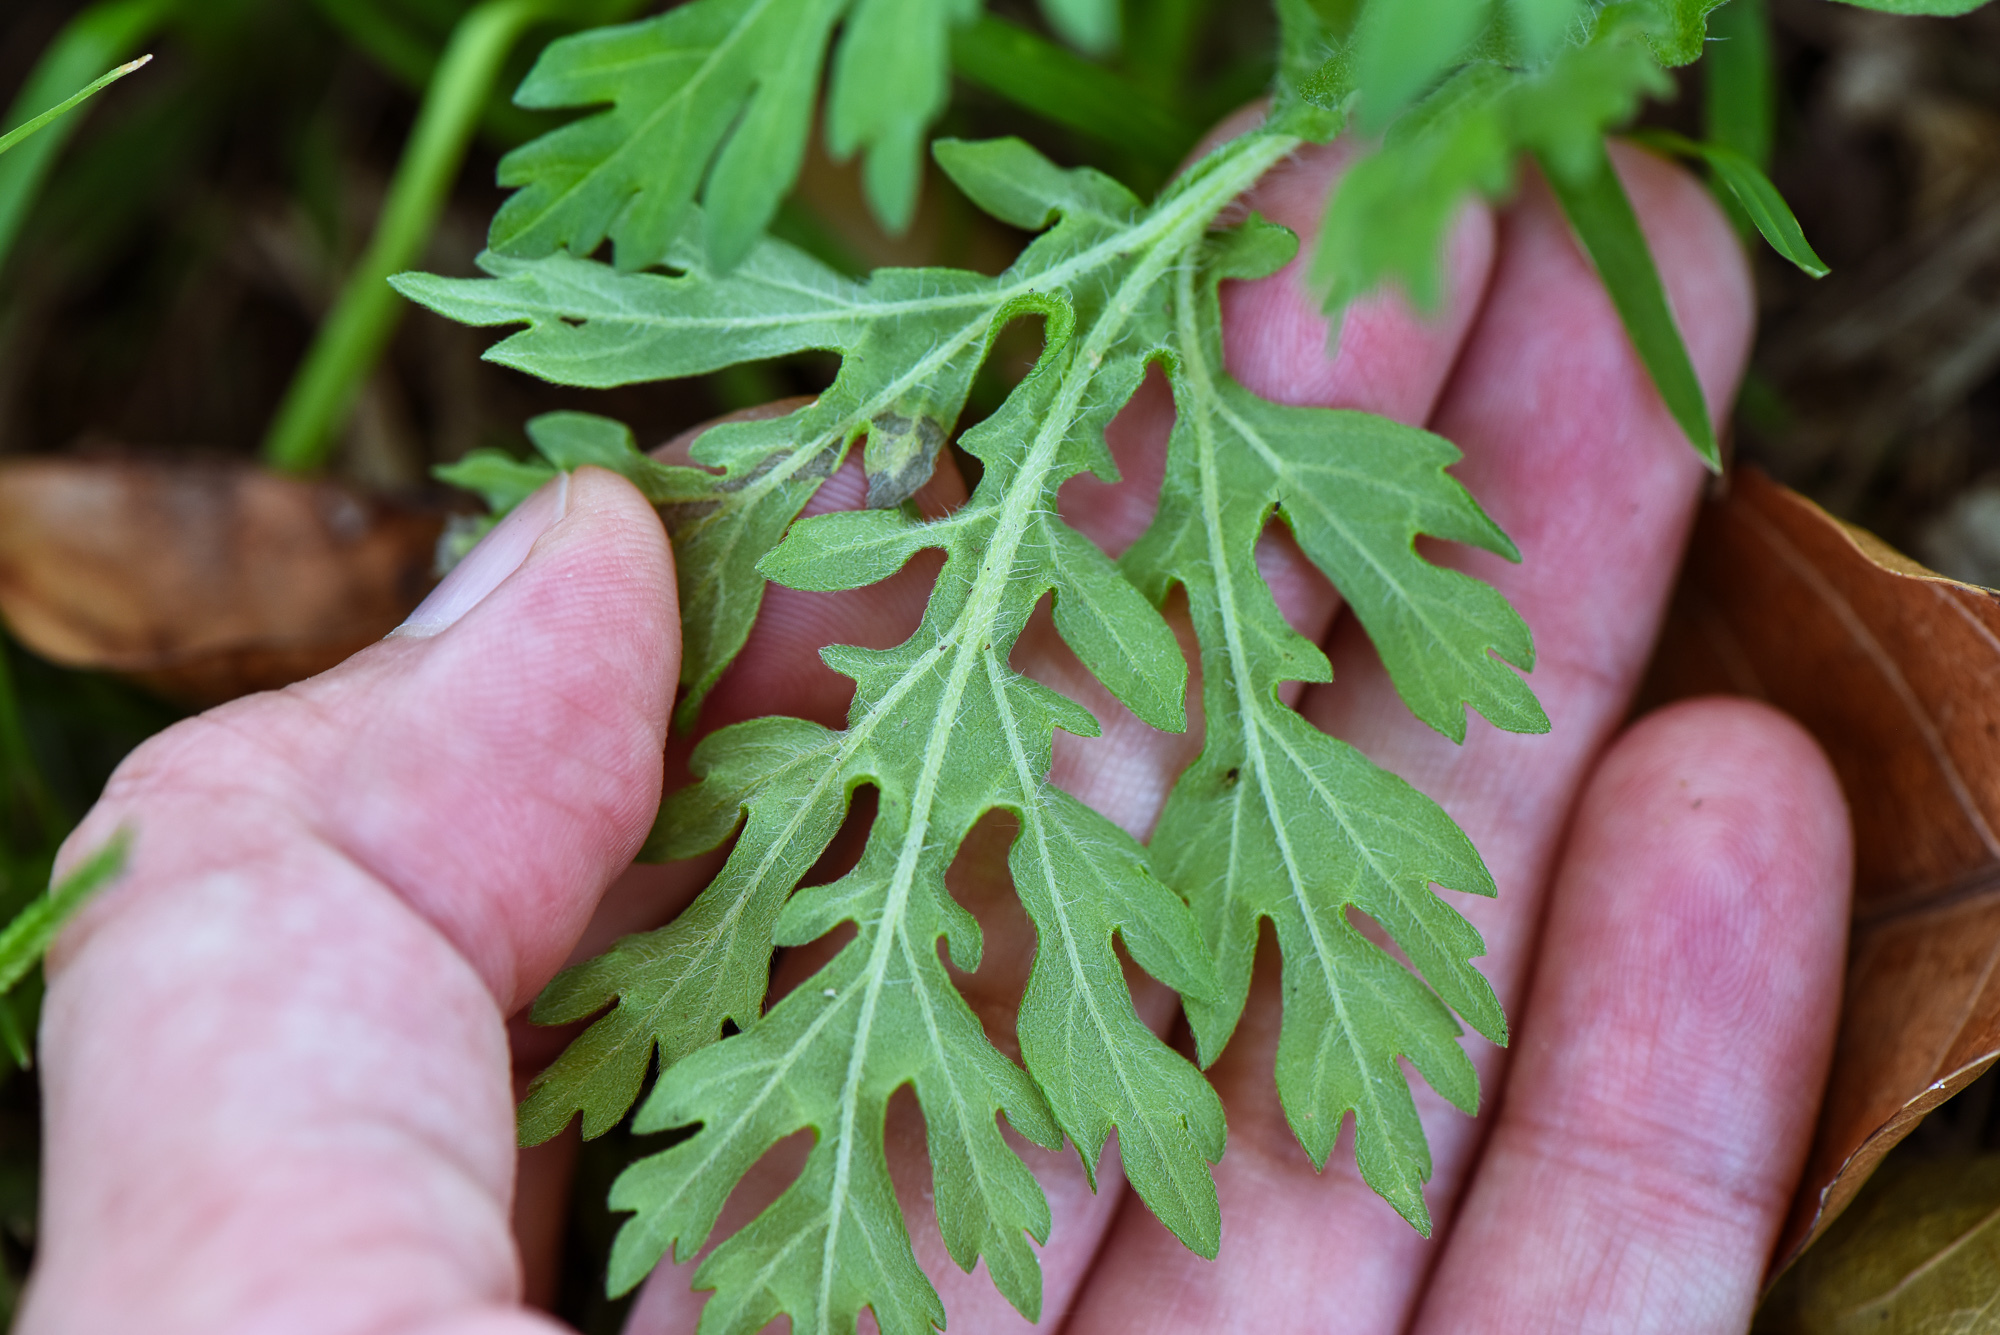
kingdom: Plantae
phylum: Tracheophyta
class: Magnoliopsida
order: Asterales
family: Asteraceae
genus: Parthenium
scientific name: Parthenium hysterophorus
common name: Santa maria feverfew
